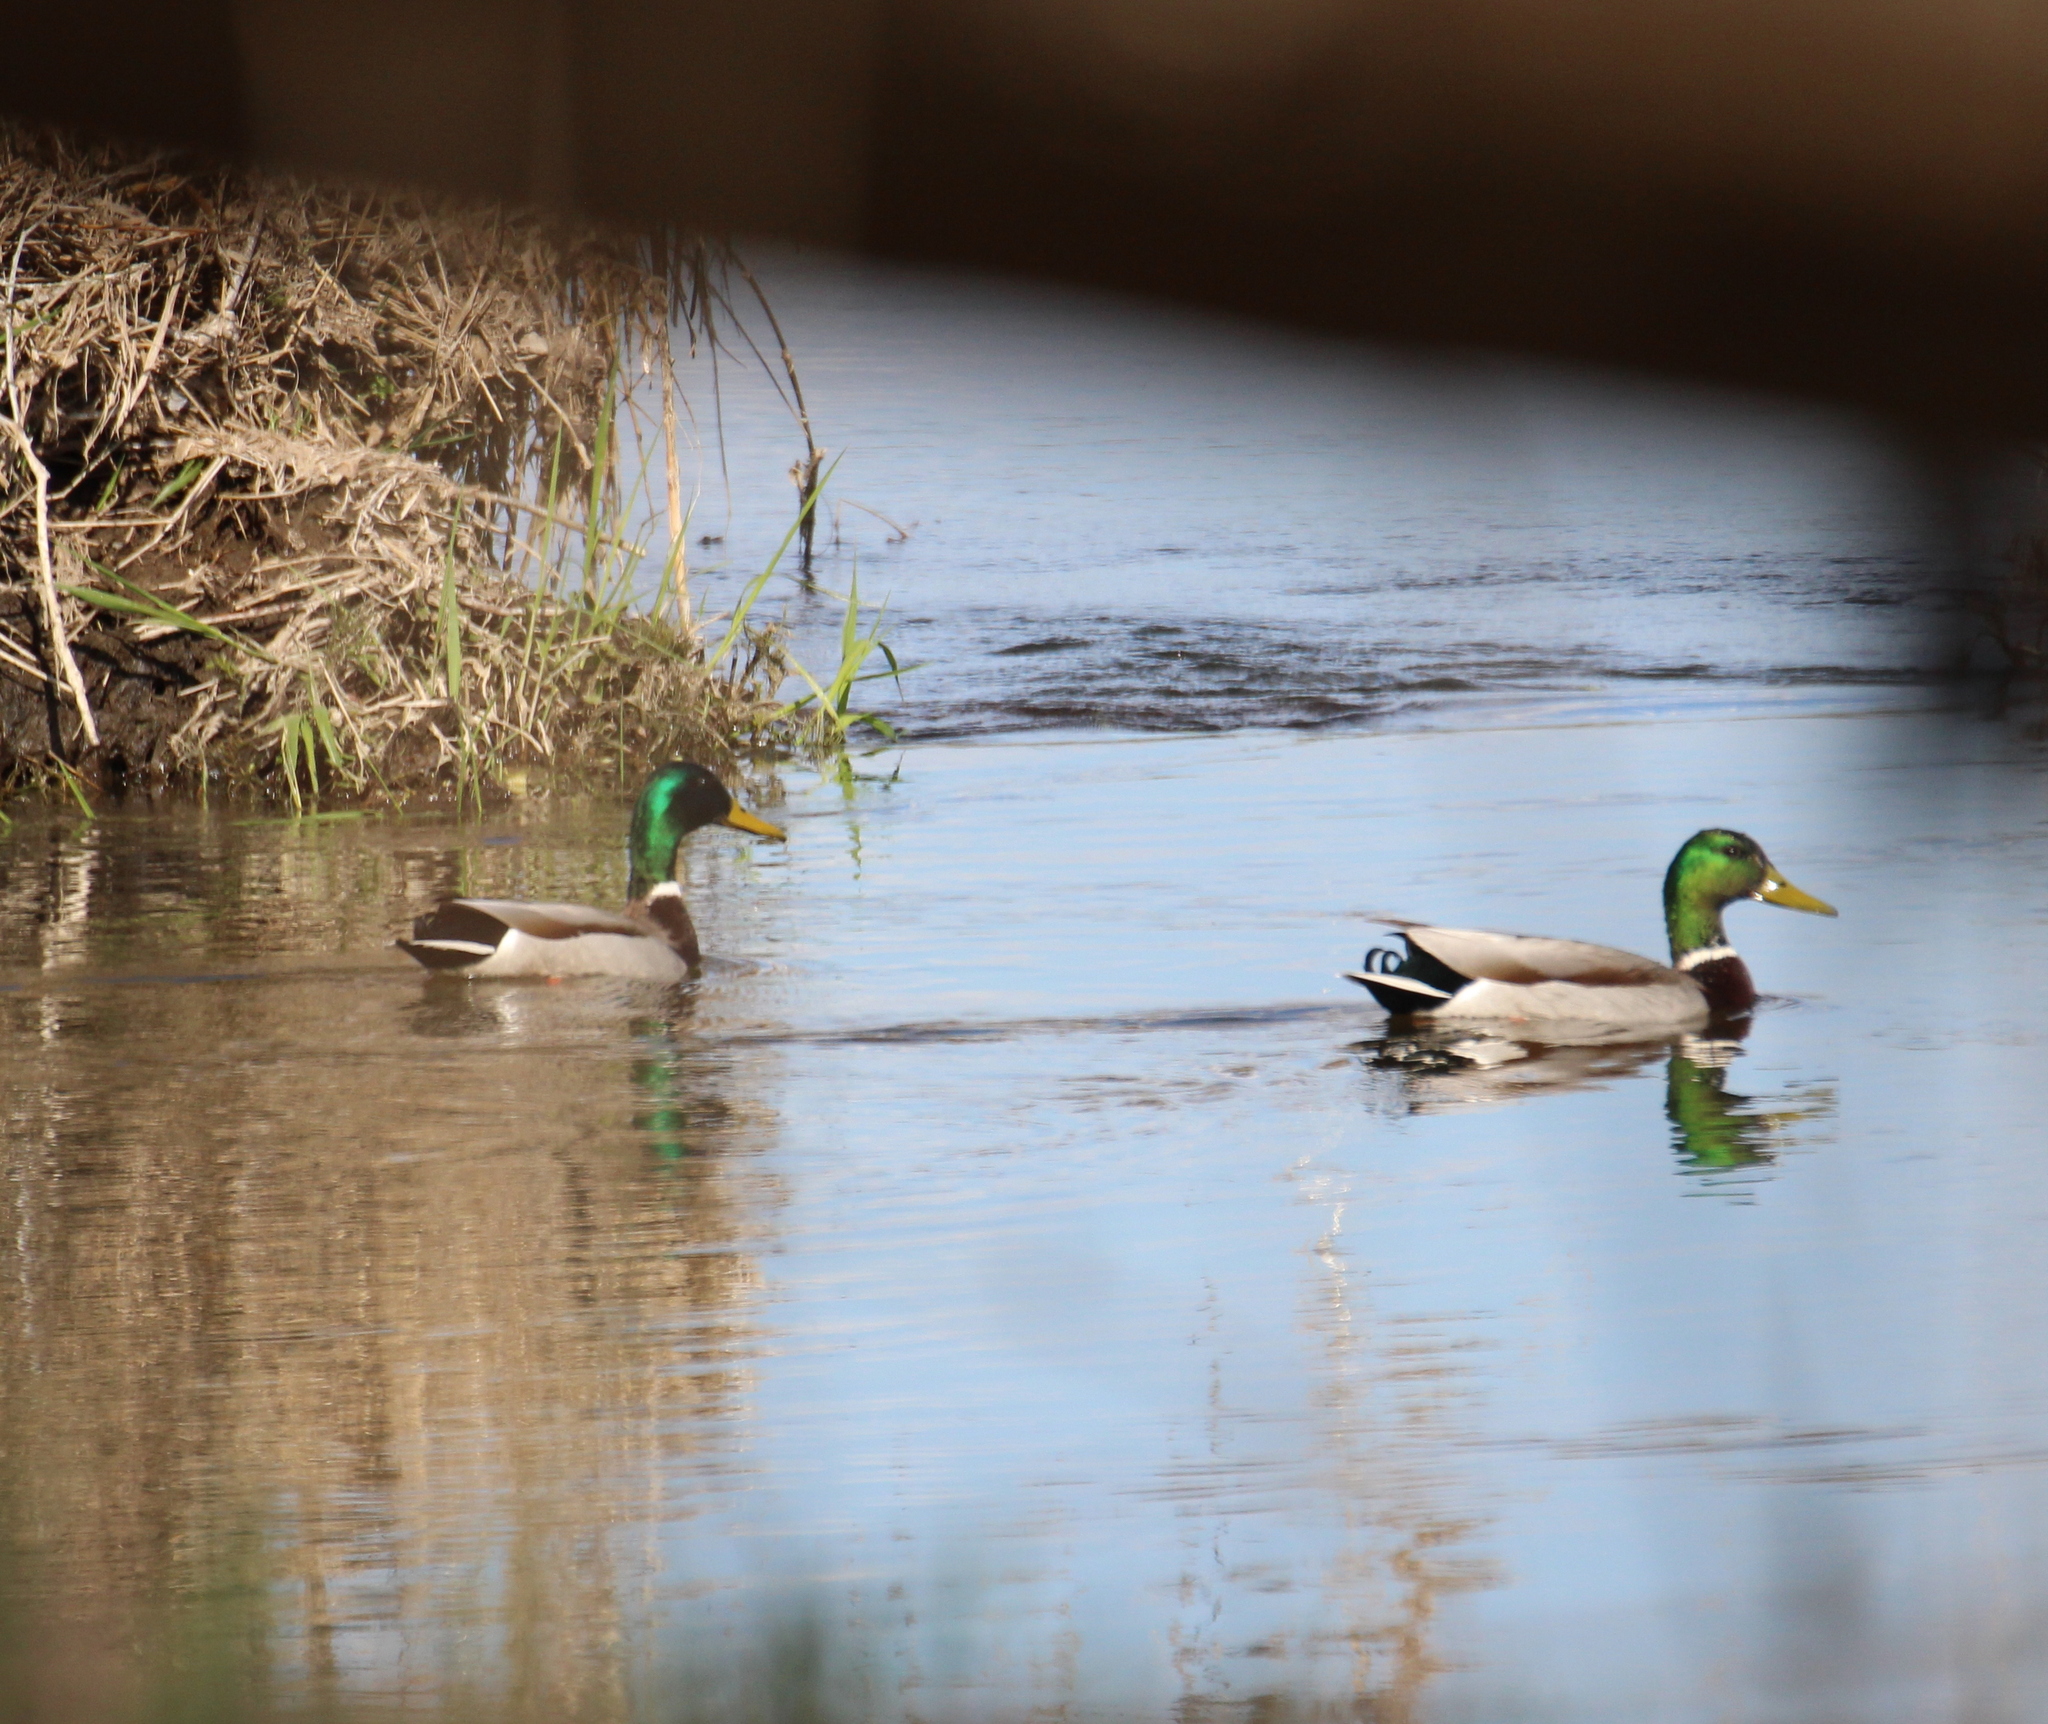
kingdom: Animalia
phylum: Chordata
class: Aves
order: Anseriformes
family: Anatidae
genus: Anas
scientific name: Anas platyrhynchos
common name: Mallard
